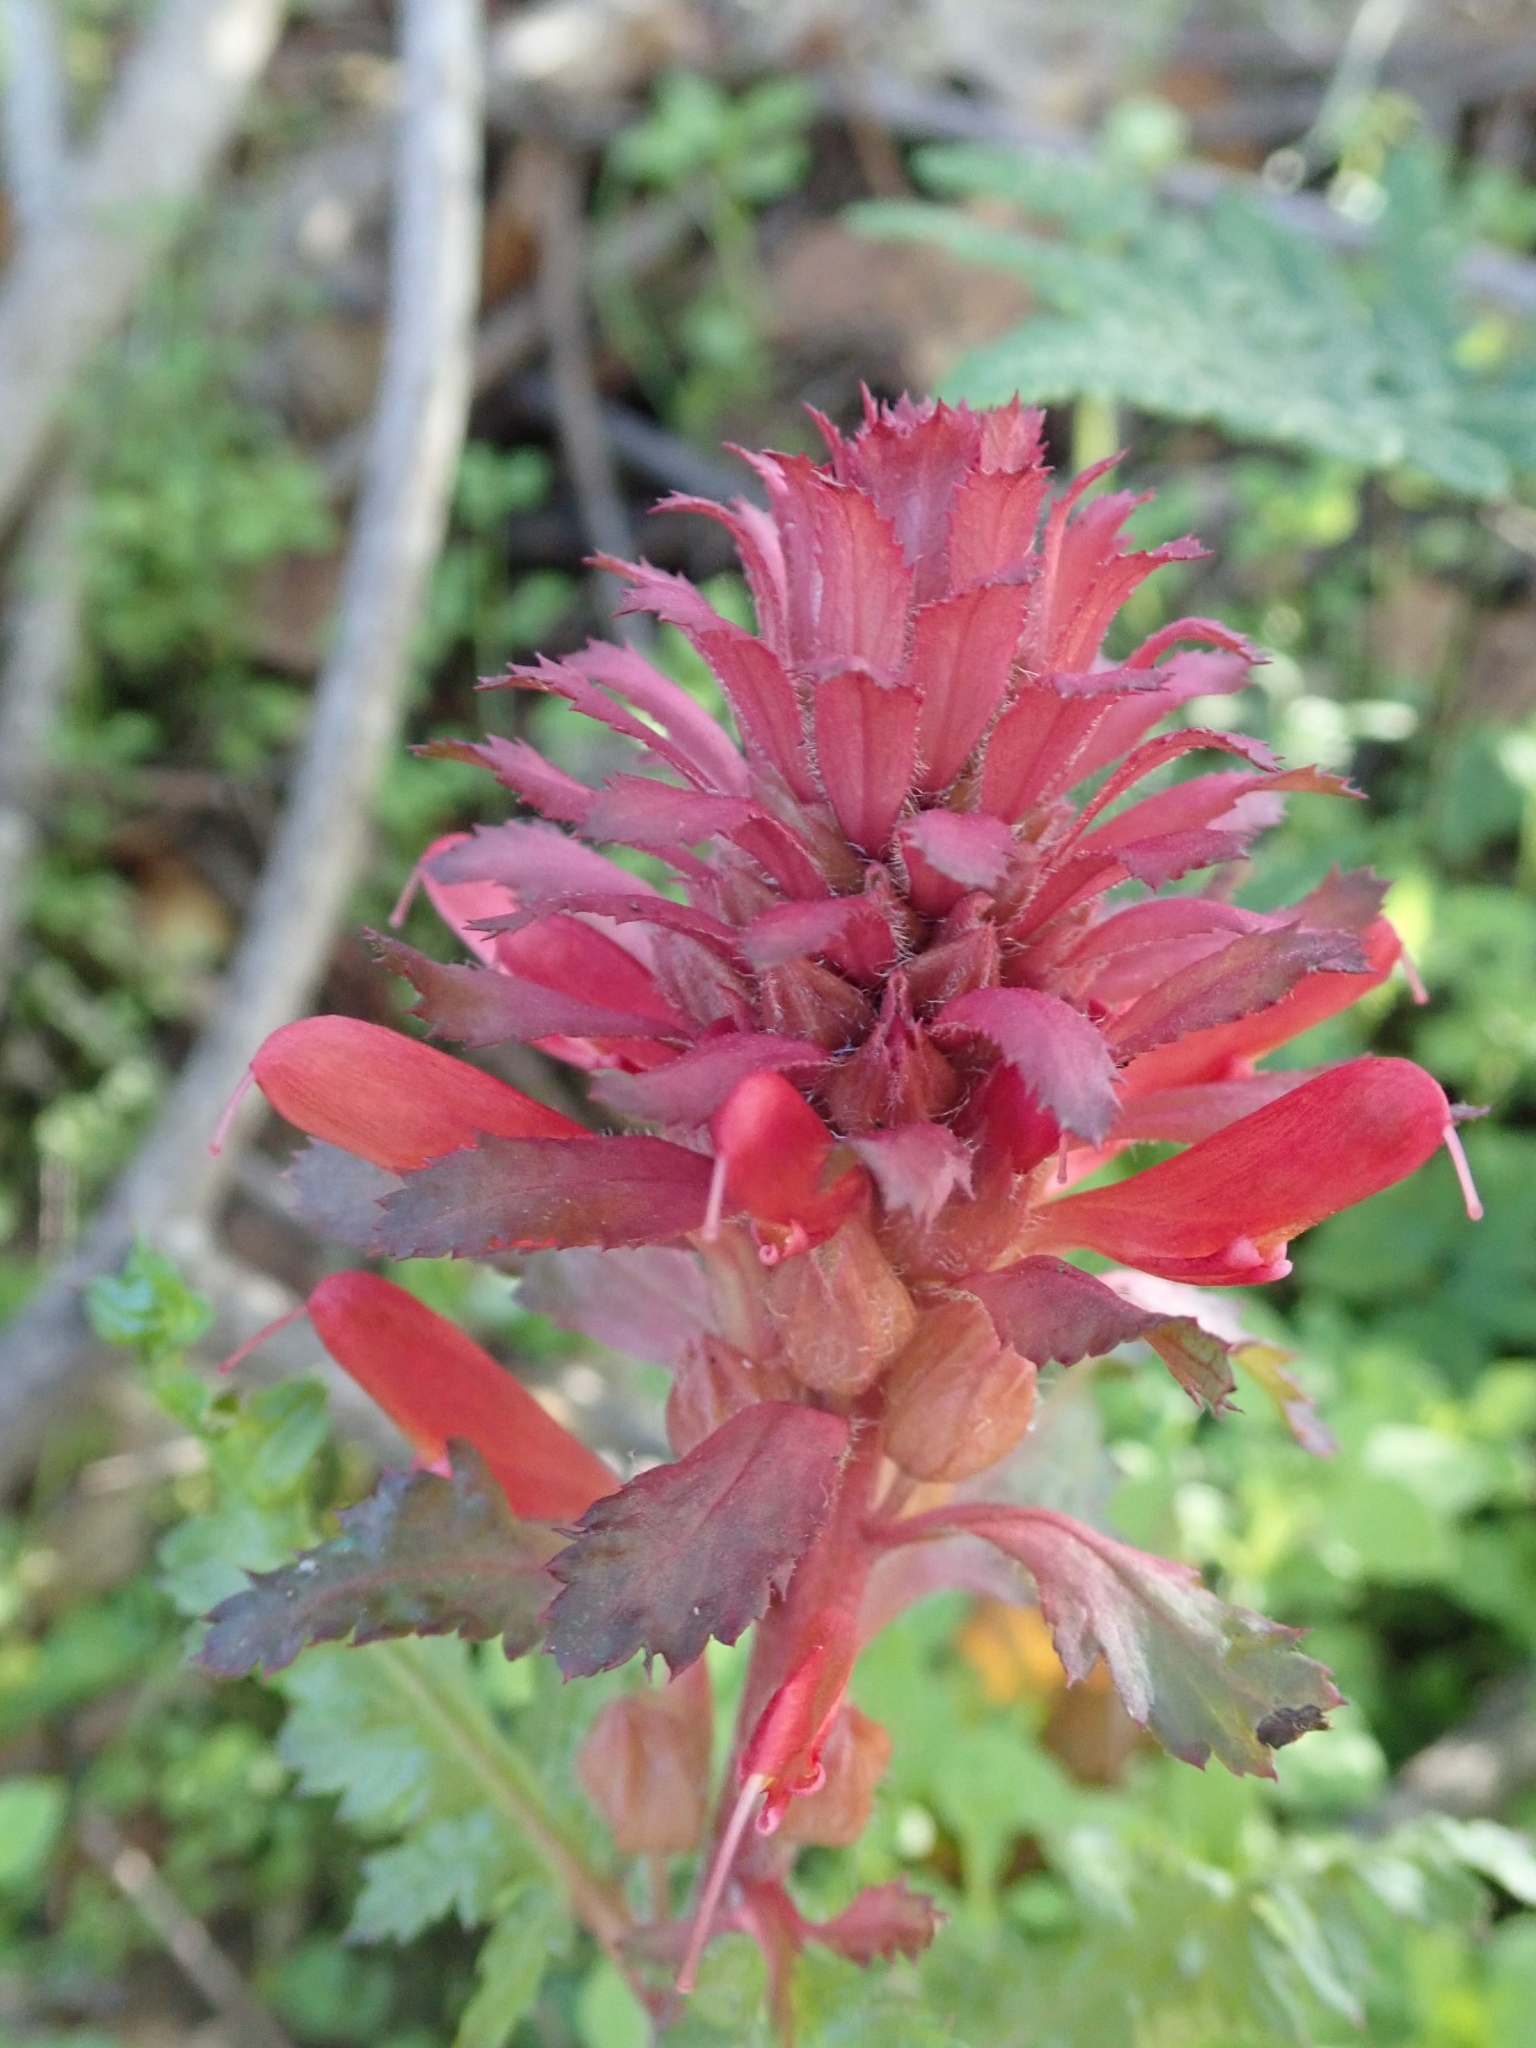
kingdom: Plantae
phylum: Tracheophyta
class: Magnoliopsida
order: Lamiales
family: Orobanchaceae
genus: Pedicularis
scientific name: Pedicularis densiflora
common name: Indian warrior
